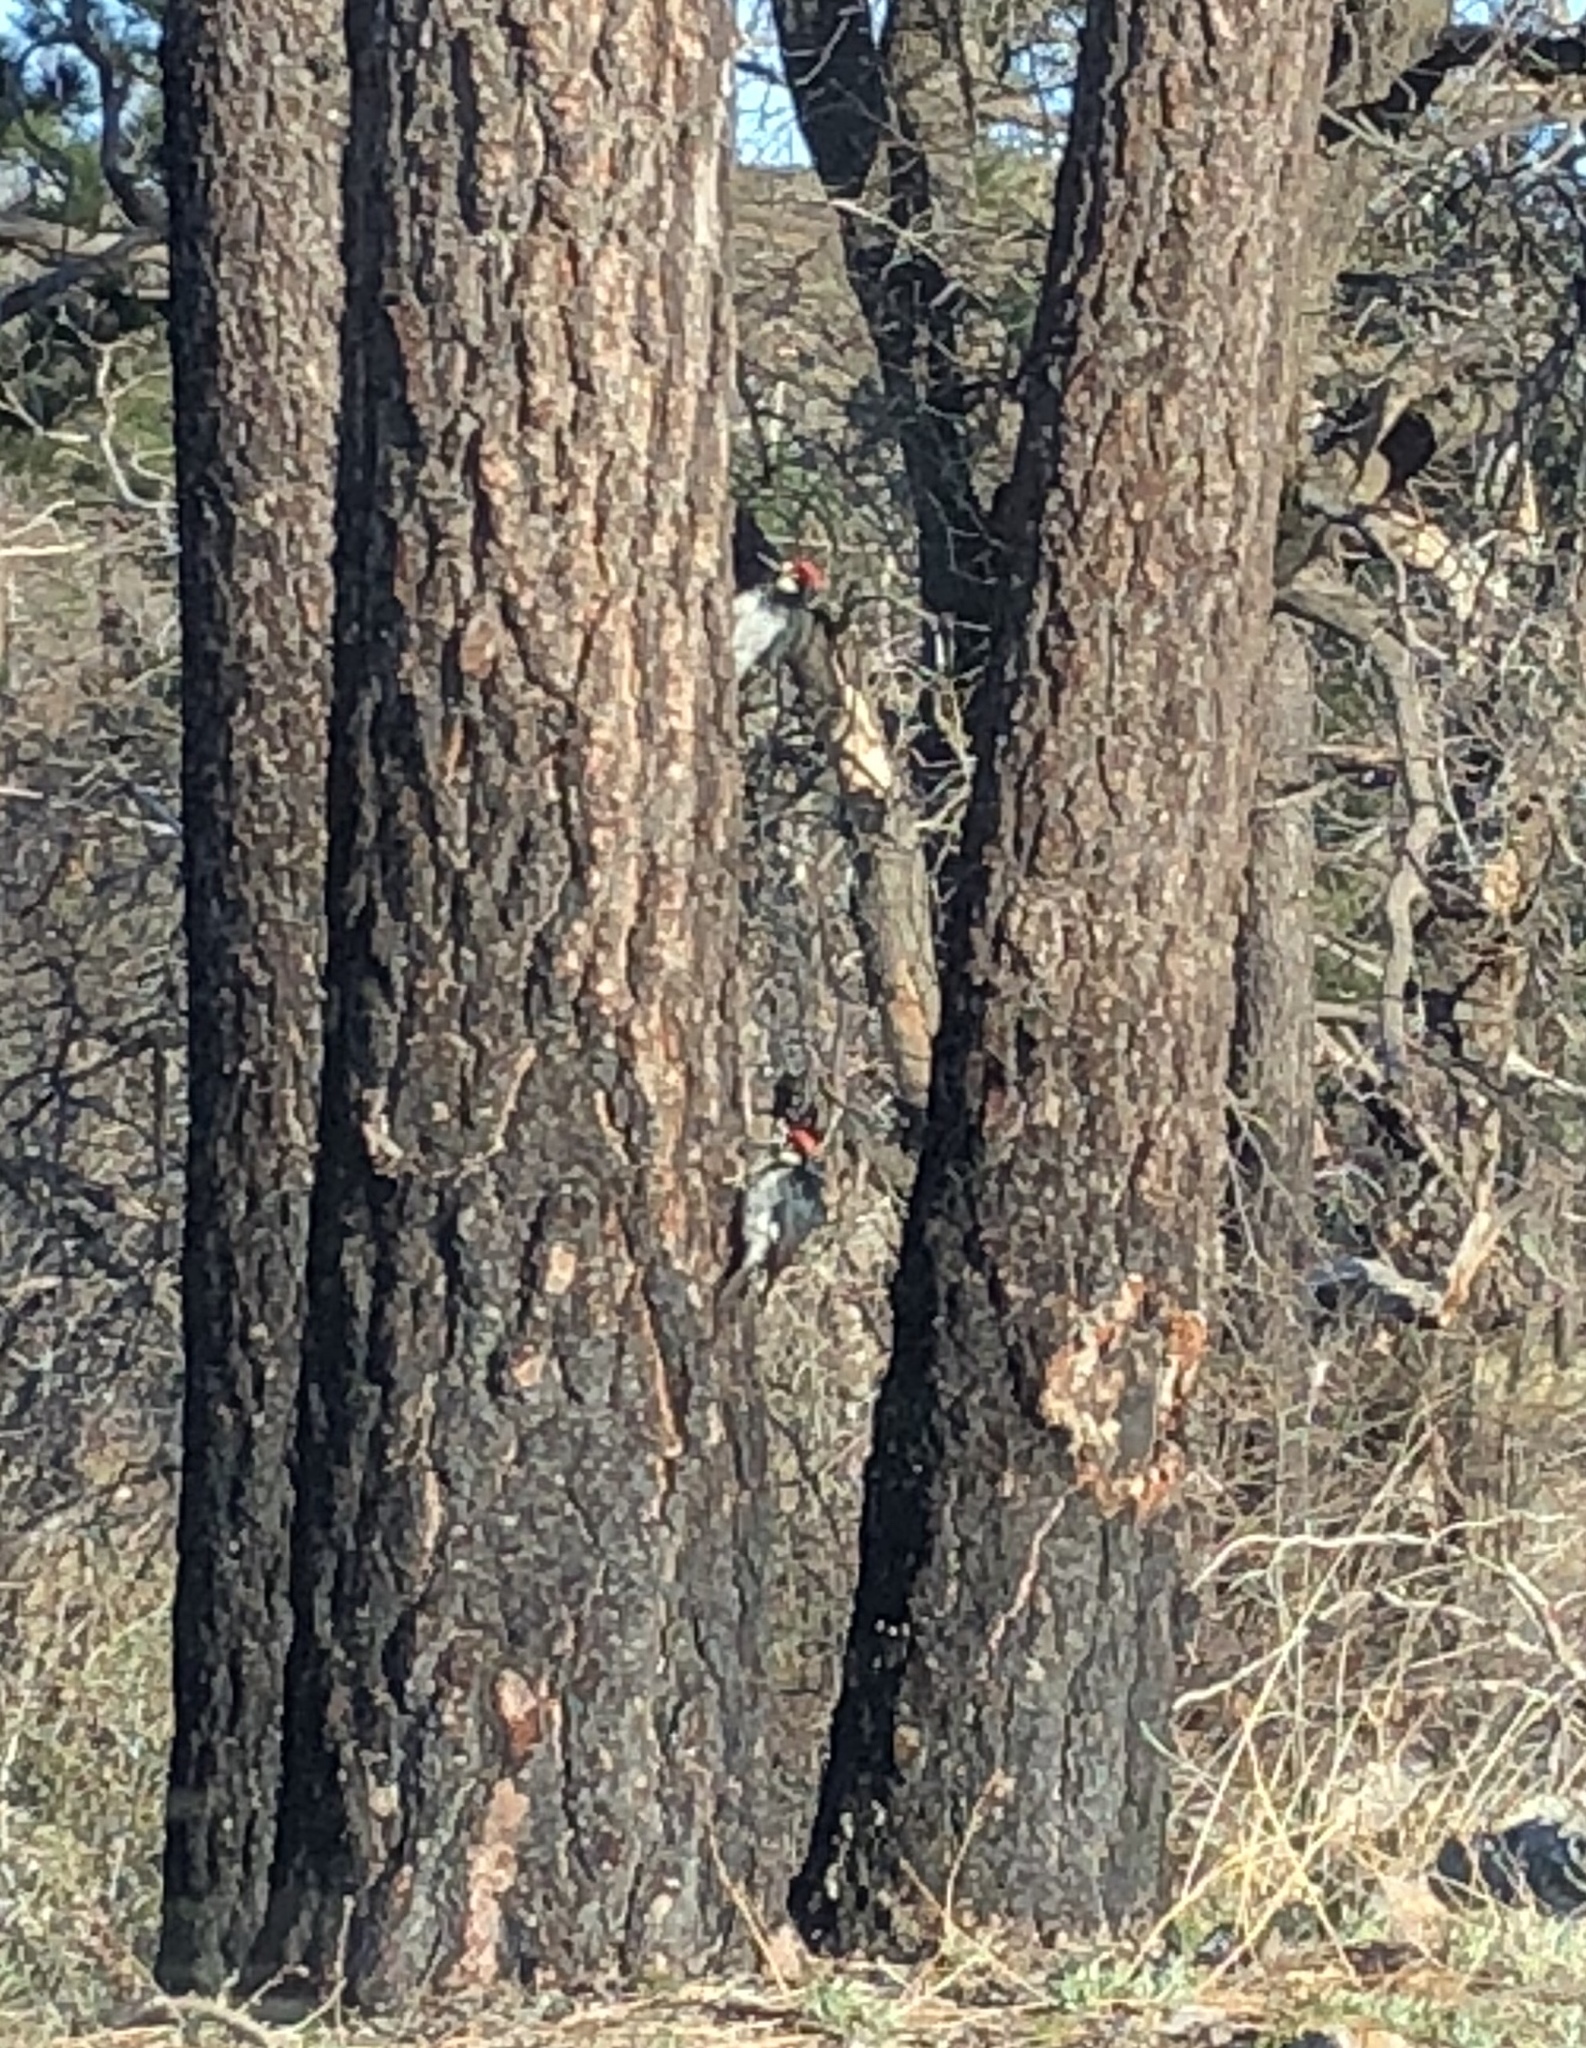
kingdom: Animalia
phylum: Chordata
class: Aves
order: Piciformes
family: Picidae
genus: Melanerpes
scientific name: Melanerpes formicivorus
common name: Acorn woodpecker
